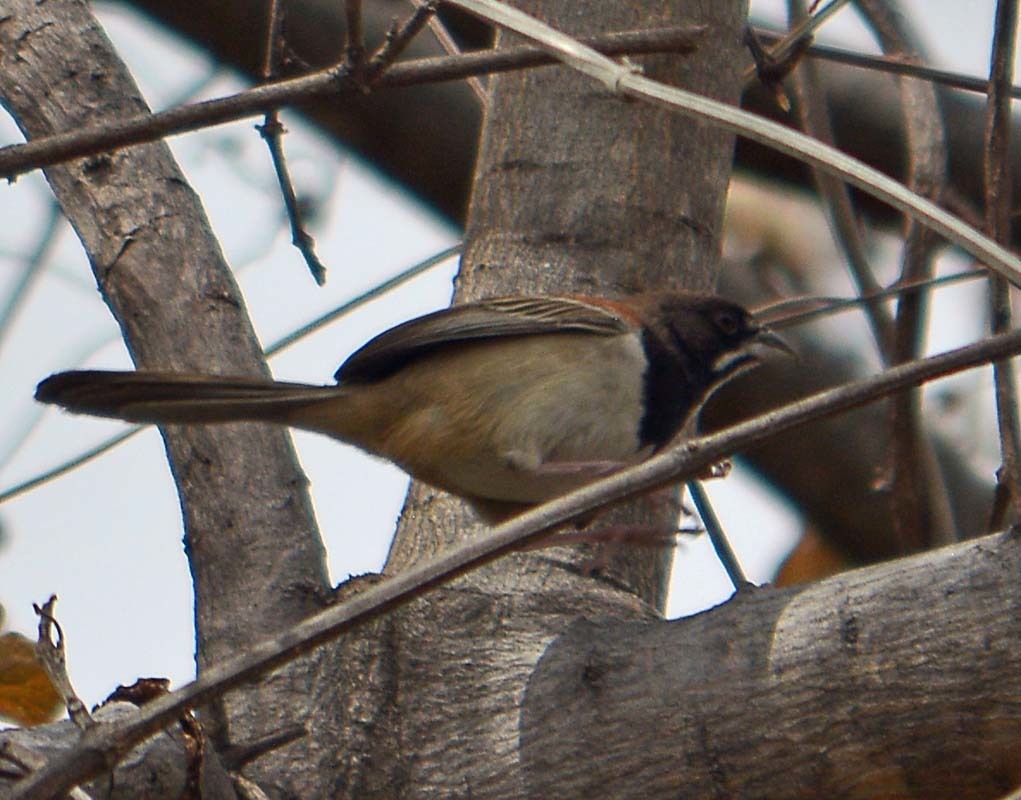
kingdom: Animalia
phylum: Chordata
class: Aves
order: Passeriformes
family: Passerellidae
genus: Peucaea
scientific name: Peucaea humeralis
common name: Black-chested sparrow
